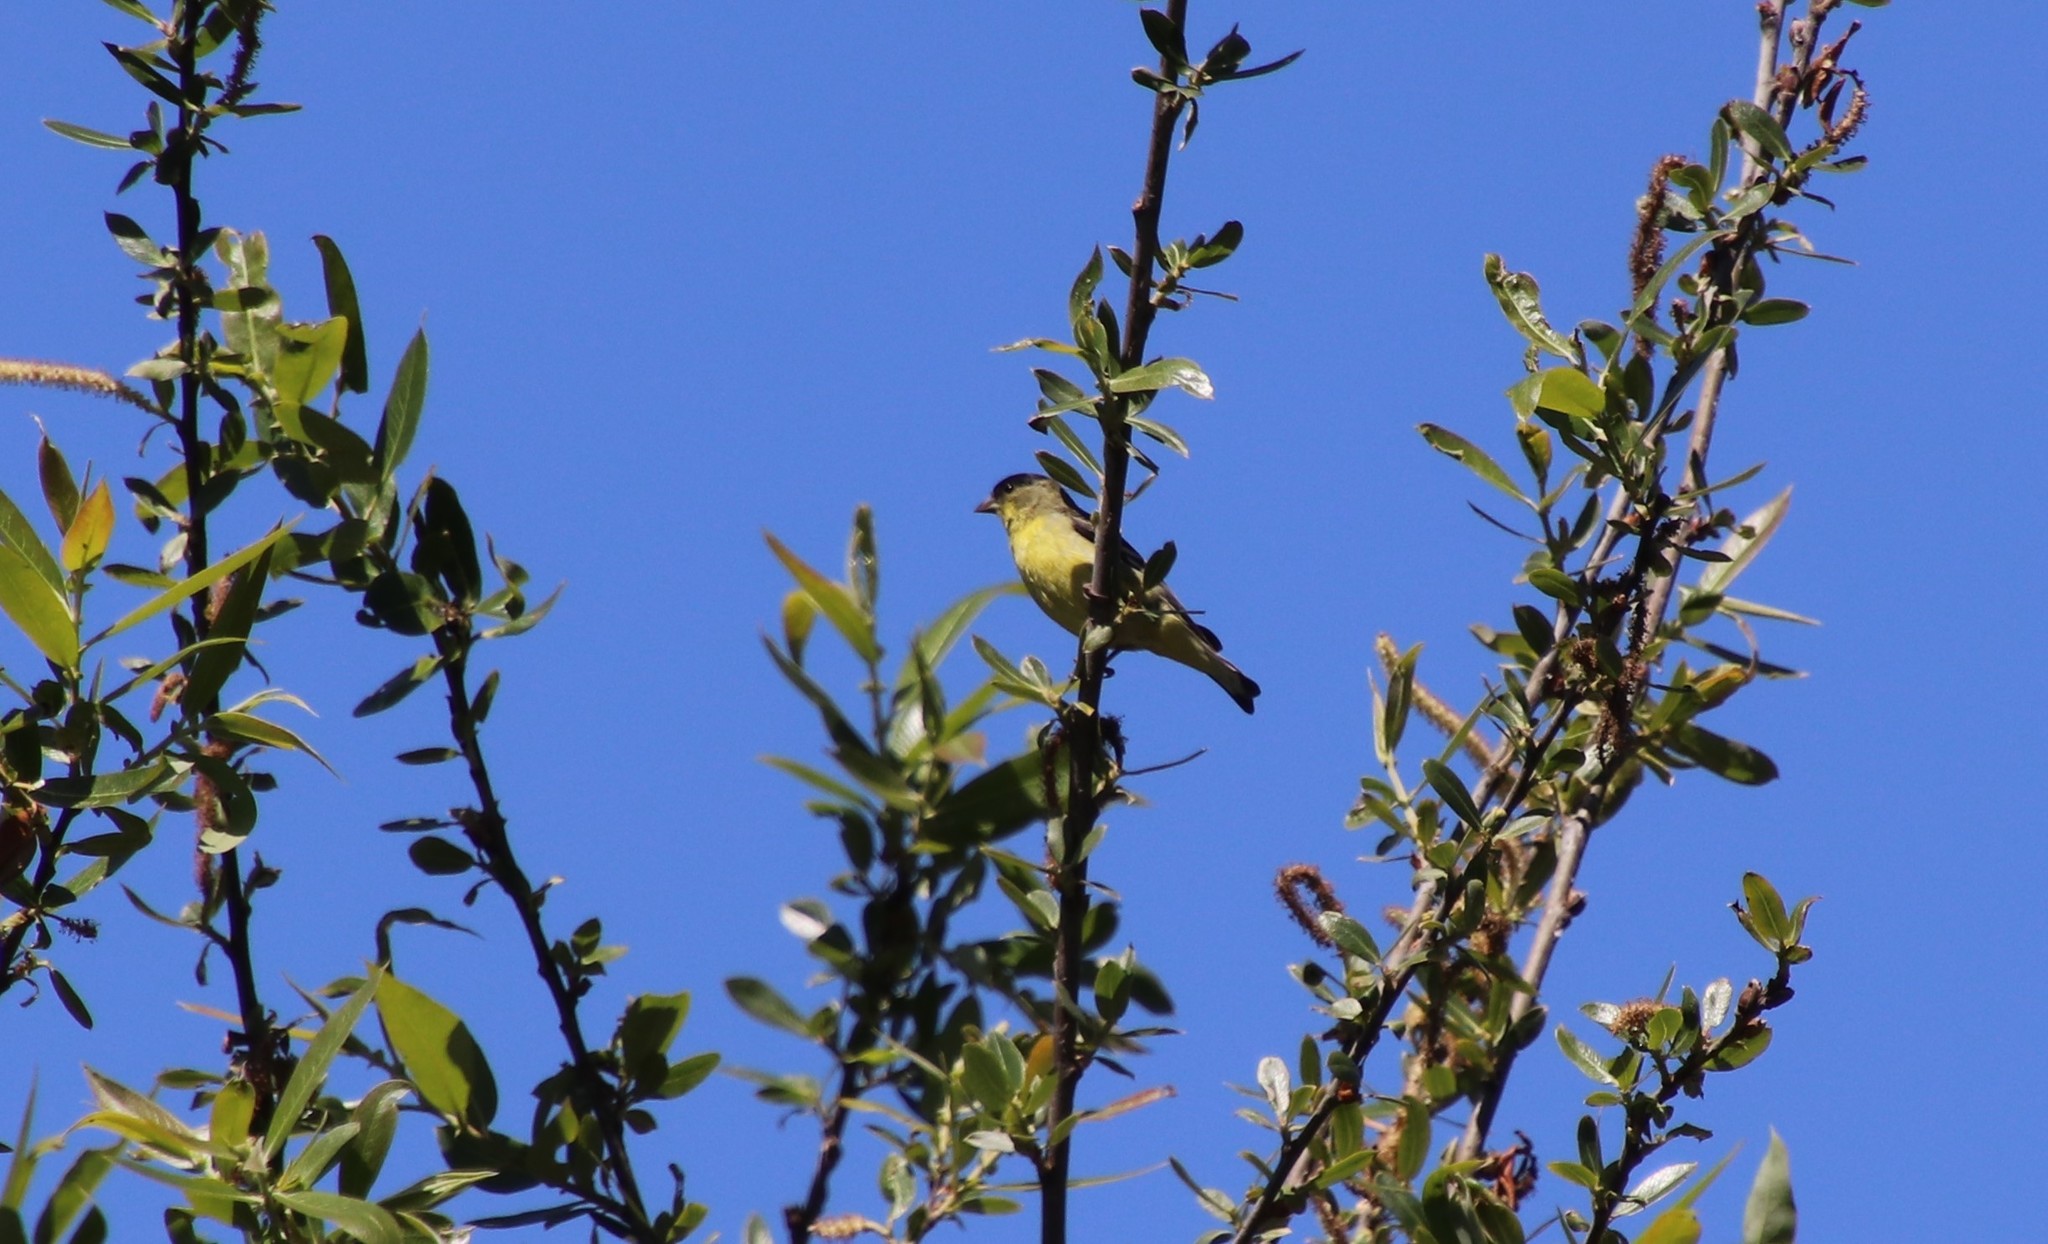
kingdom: Animalia
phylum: Chordata
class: Aves
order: Passeriformes
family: Fringillidae
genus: Spinus
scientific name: Spinus psaltria
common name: Lesser goldfinch
